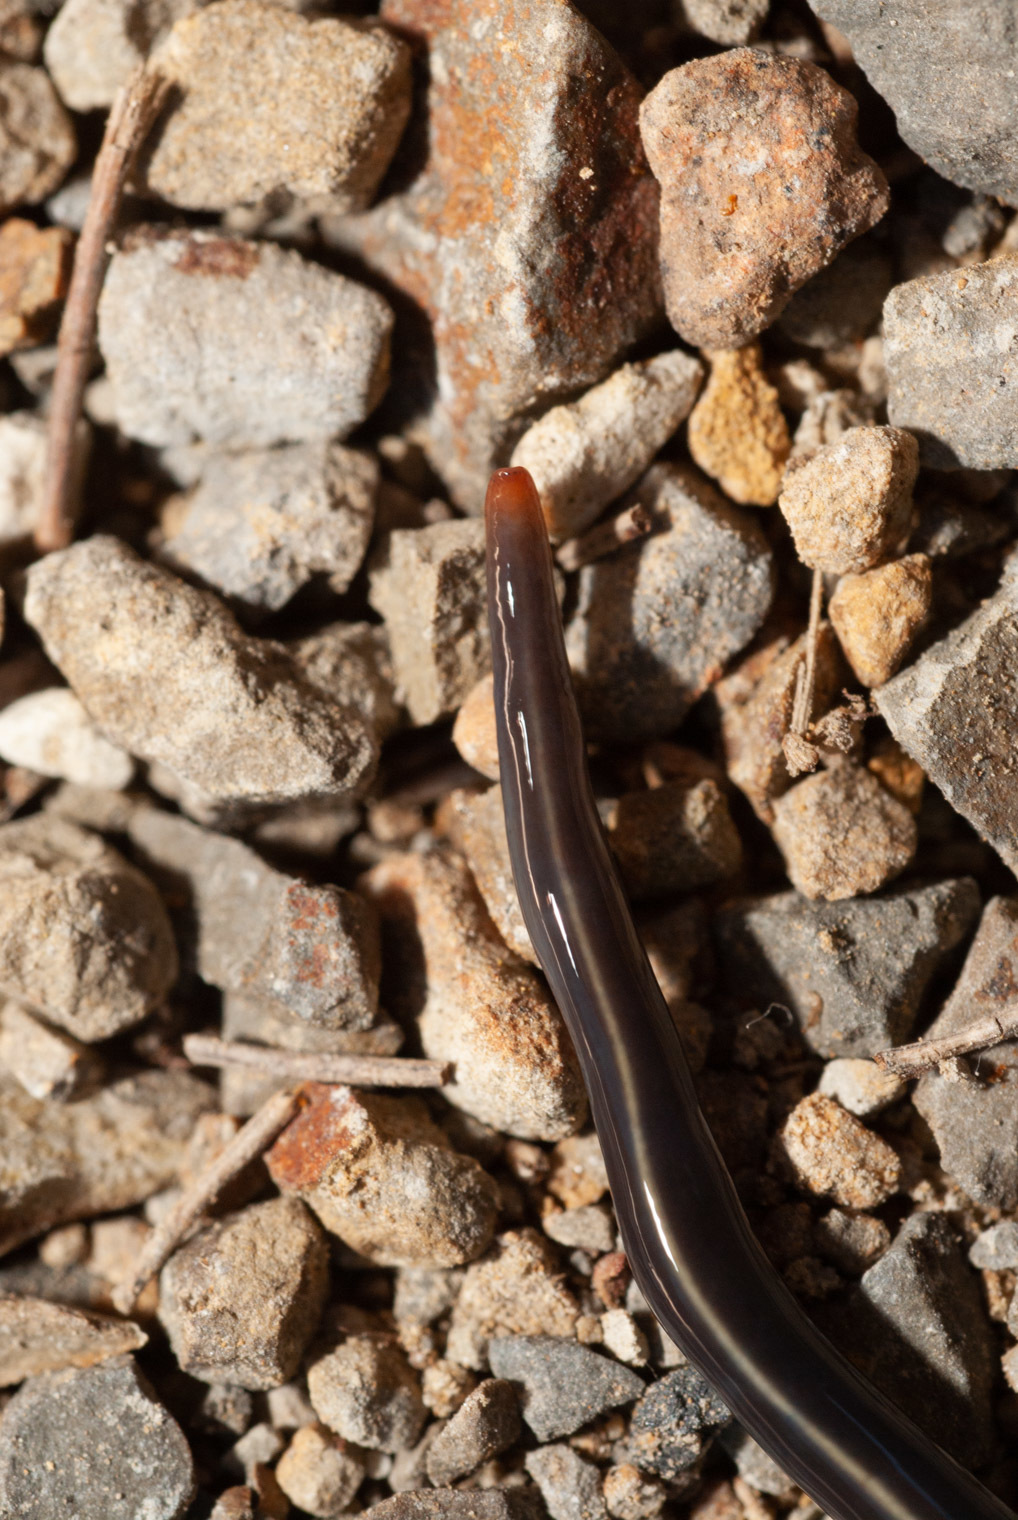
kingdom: Animalia
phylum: Platyhelminthes
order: Tricladida
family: Geoplanidae
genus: Caenoplana
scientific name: Caenoplana coerulea
